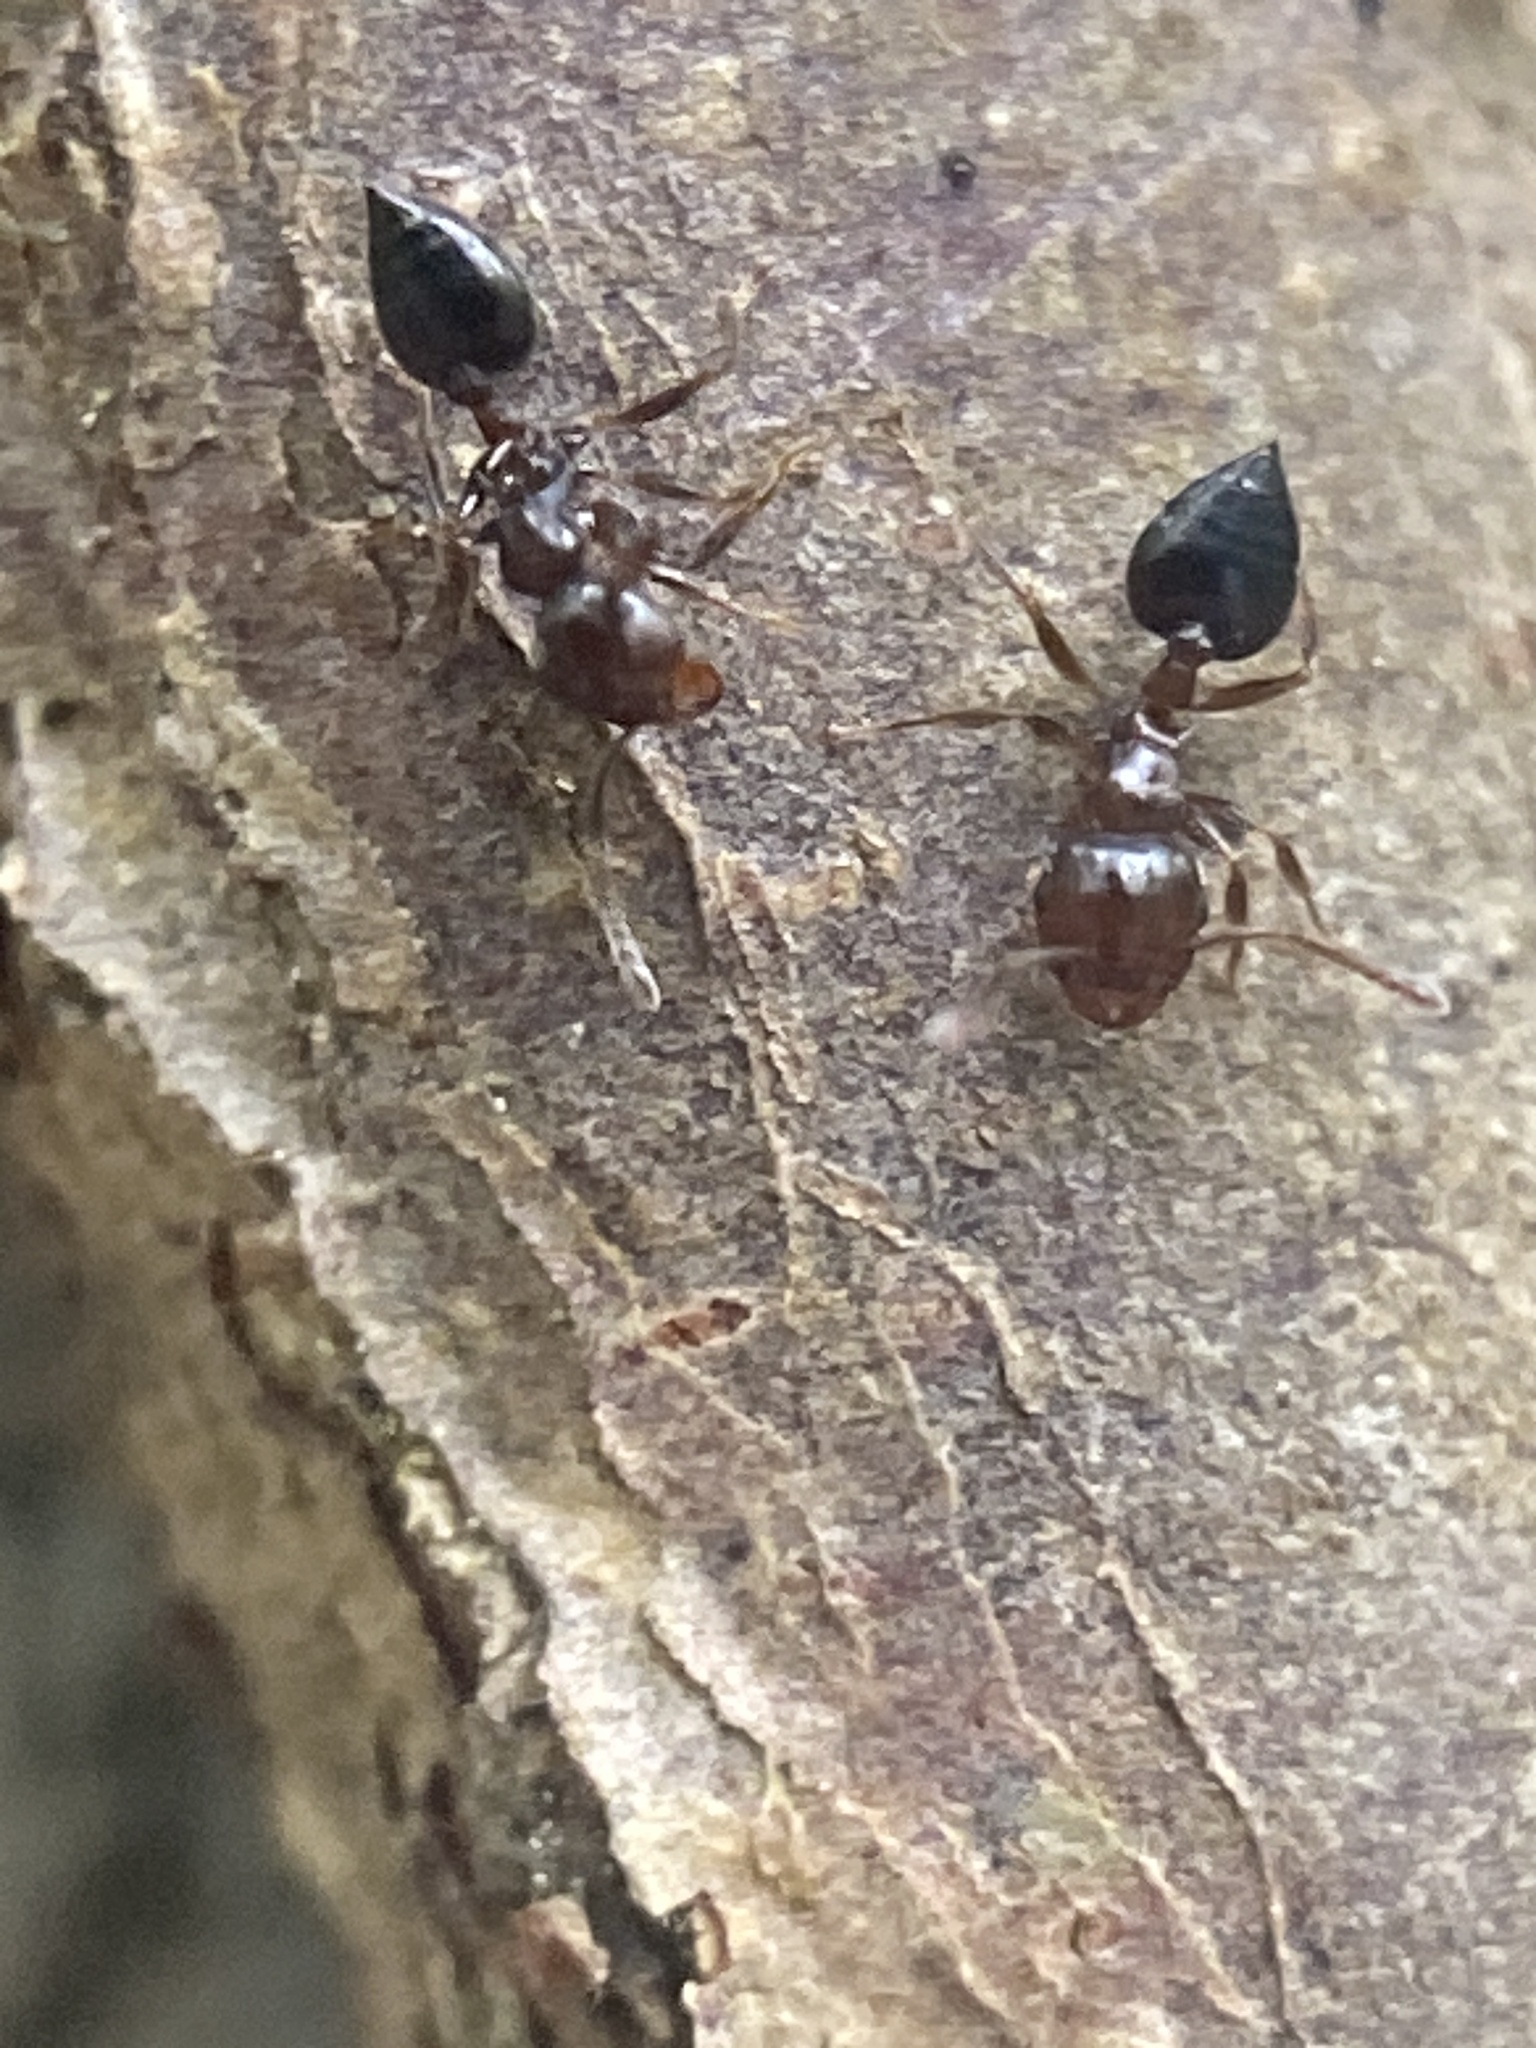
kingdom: Animalia
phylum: Arthropoda
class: Insecta
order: Hymenoptera
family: Formicidae
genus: Crematogaster
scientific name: Crematogaster ashmeadi
